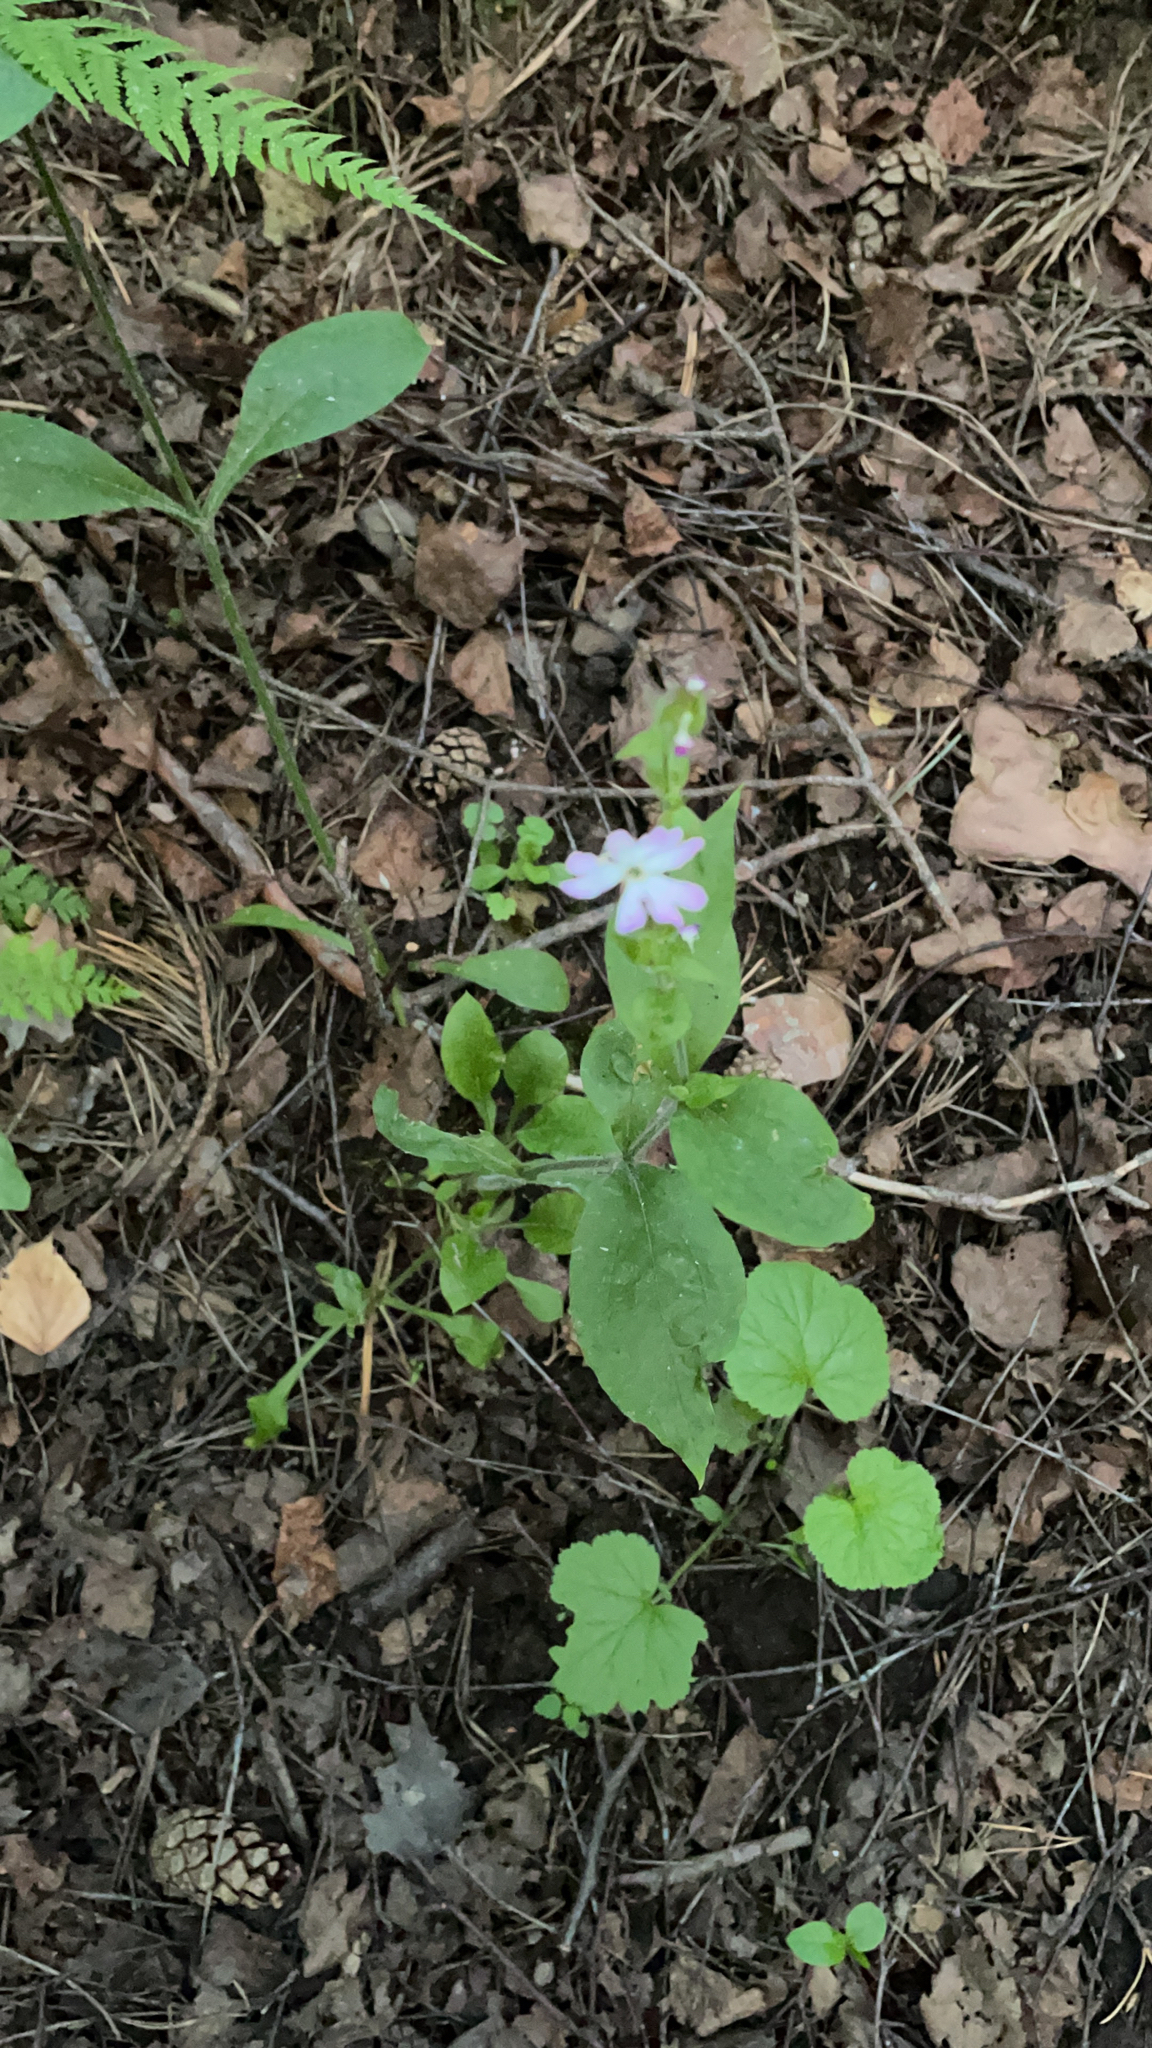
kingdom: Plantae
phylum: Tracheophyta
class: Magnoliopsida
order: Caryophyllales
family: Caryophyllaceae
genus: Silene
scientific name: Silene dioica
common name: Red campion
